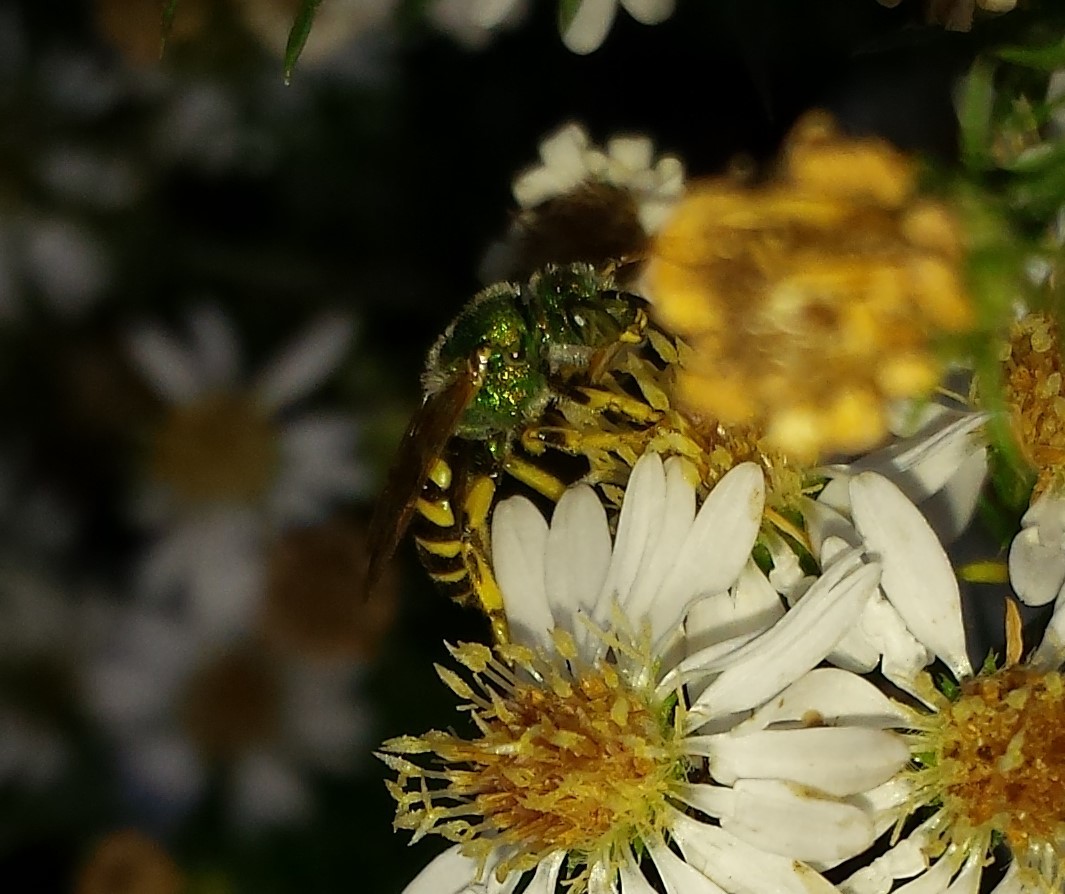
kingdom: Animalia
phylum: Arthropoda
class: Insecta
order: Hymenoptera
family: Halictidae
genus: Agapostemon
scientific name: Agapostemon virescens
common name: Bicolored striped sweat bee
